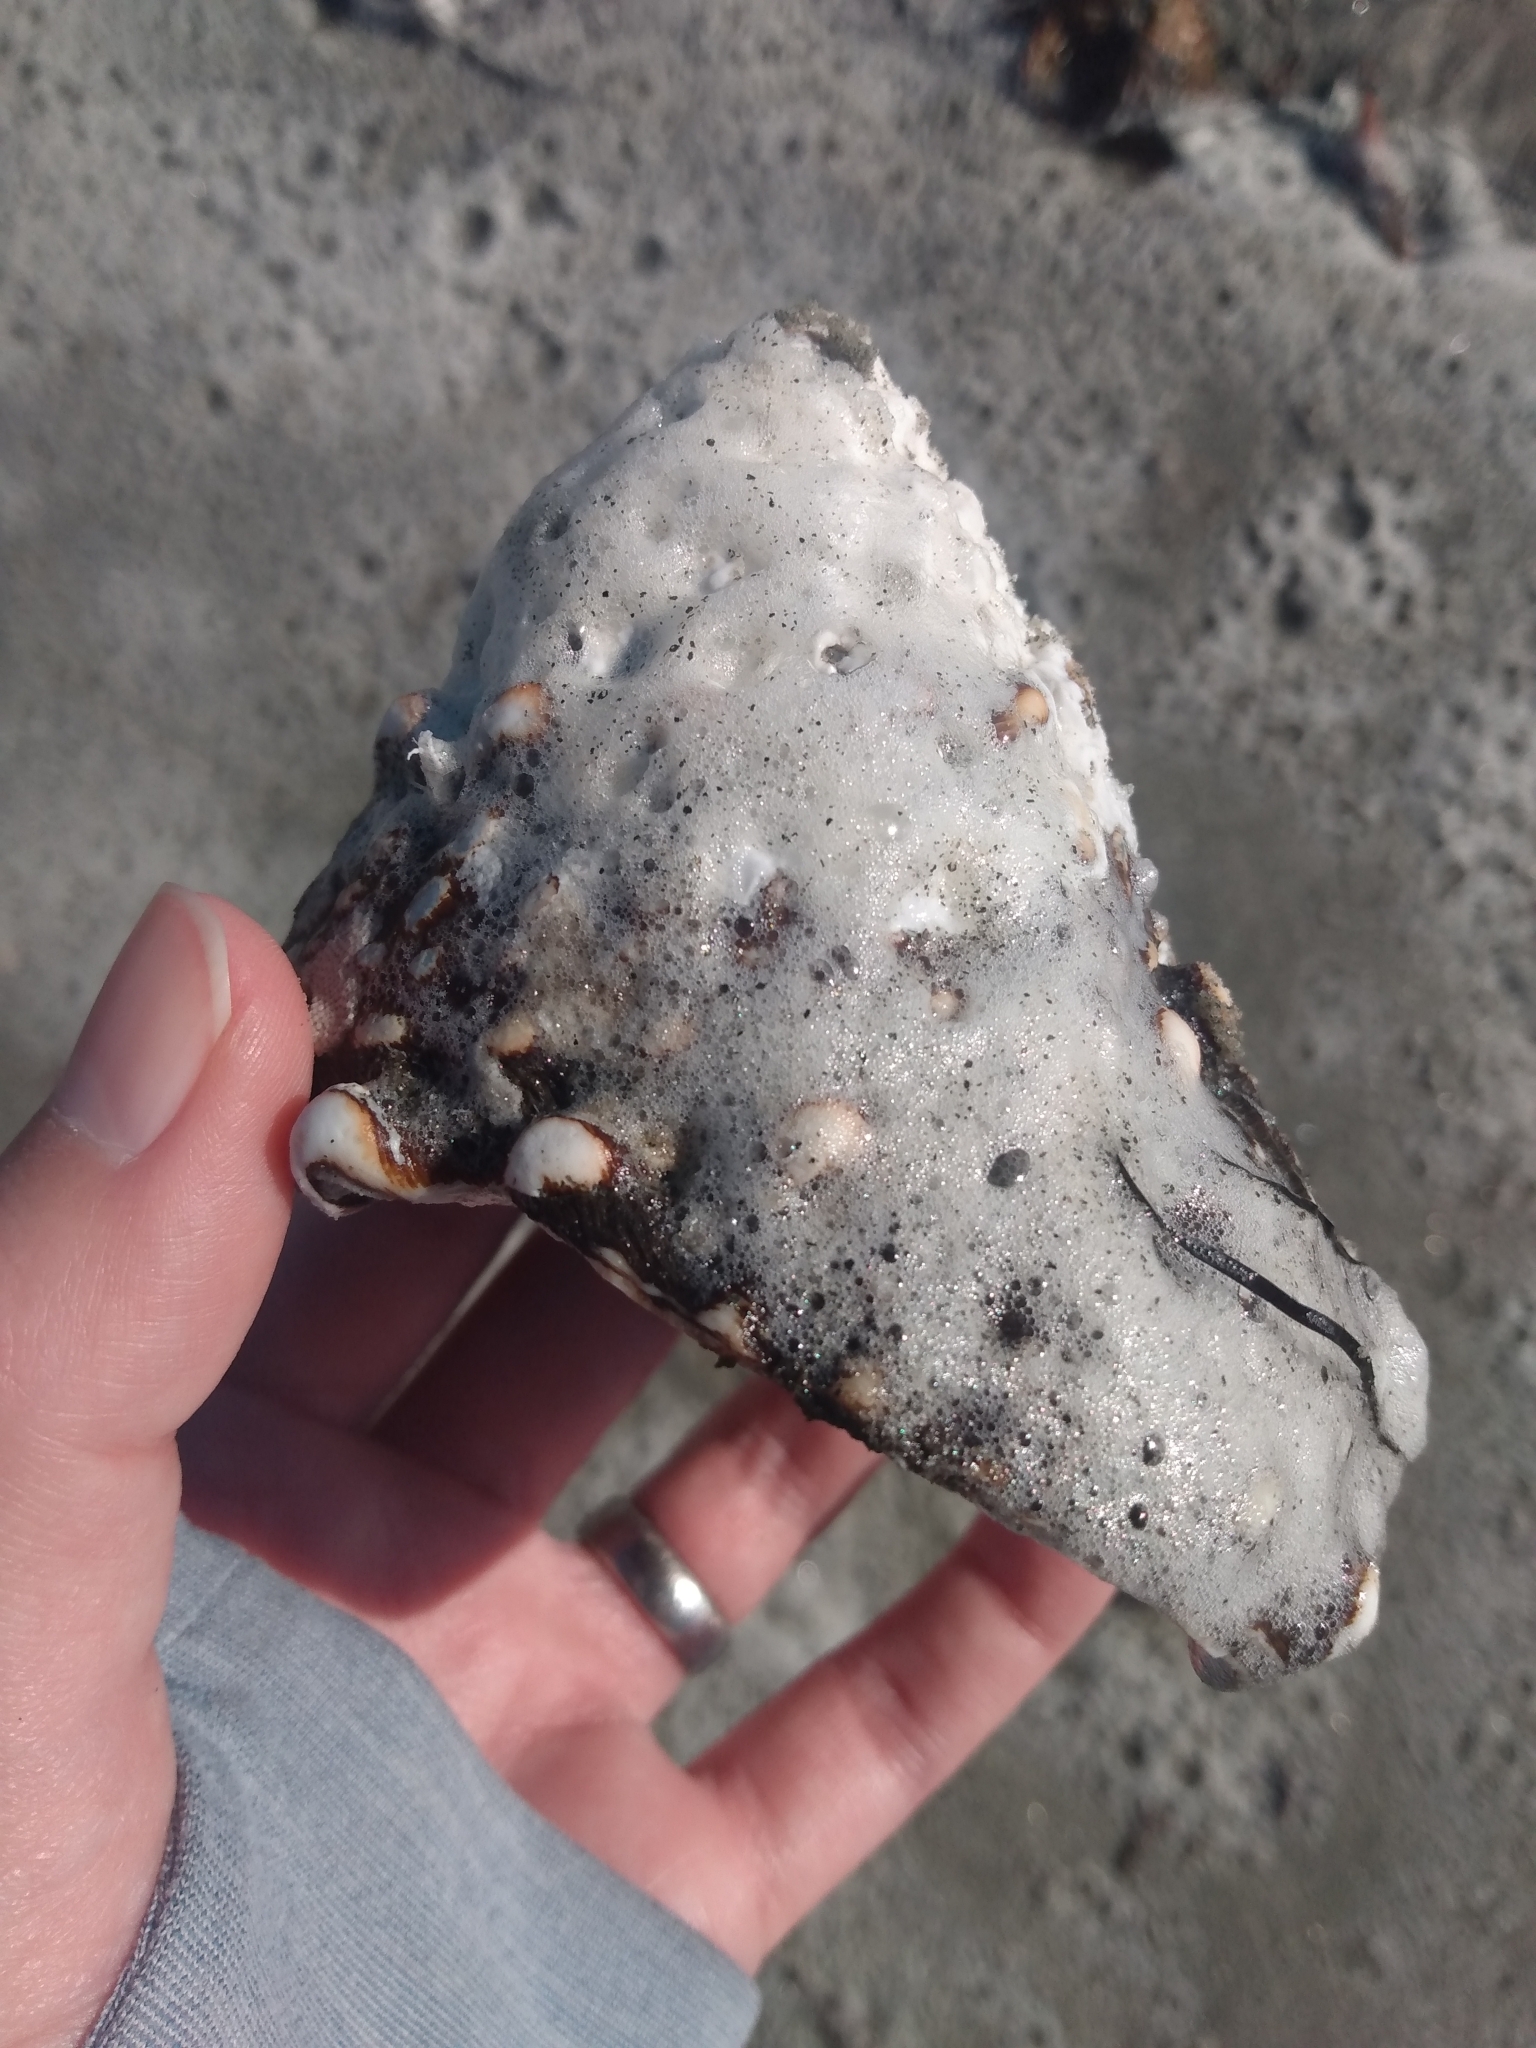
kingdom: Animalia
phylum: Mollusca
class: Gastropoda
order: Trochida
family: Turbinidae
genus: Megastraea
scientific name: Megastraea undosa
